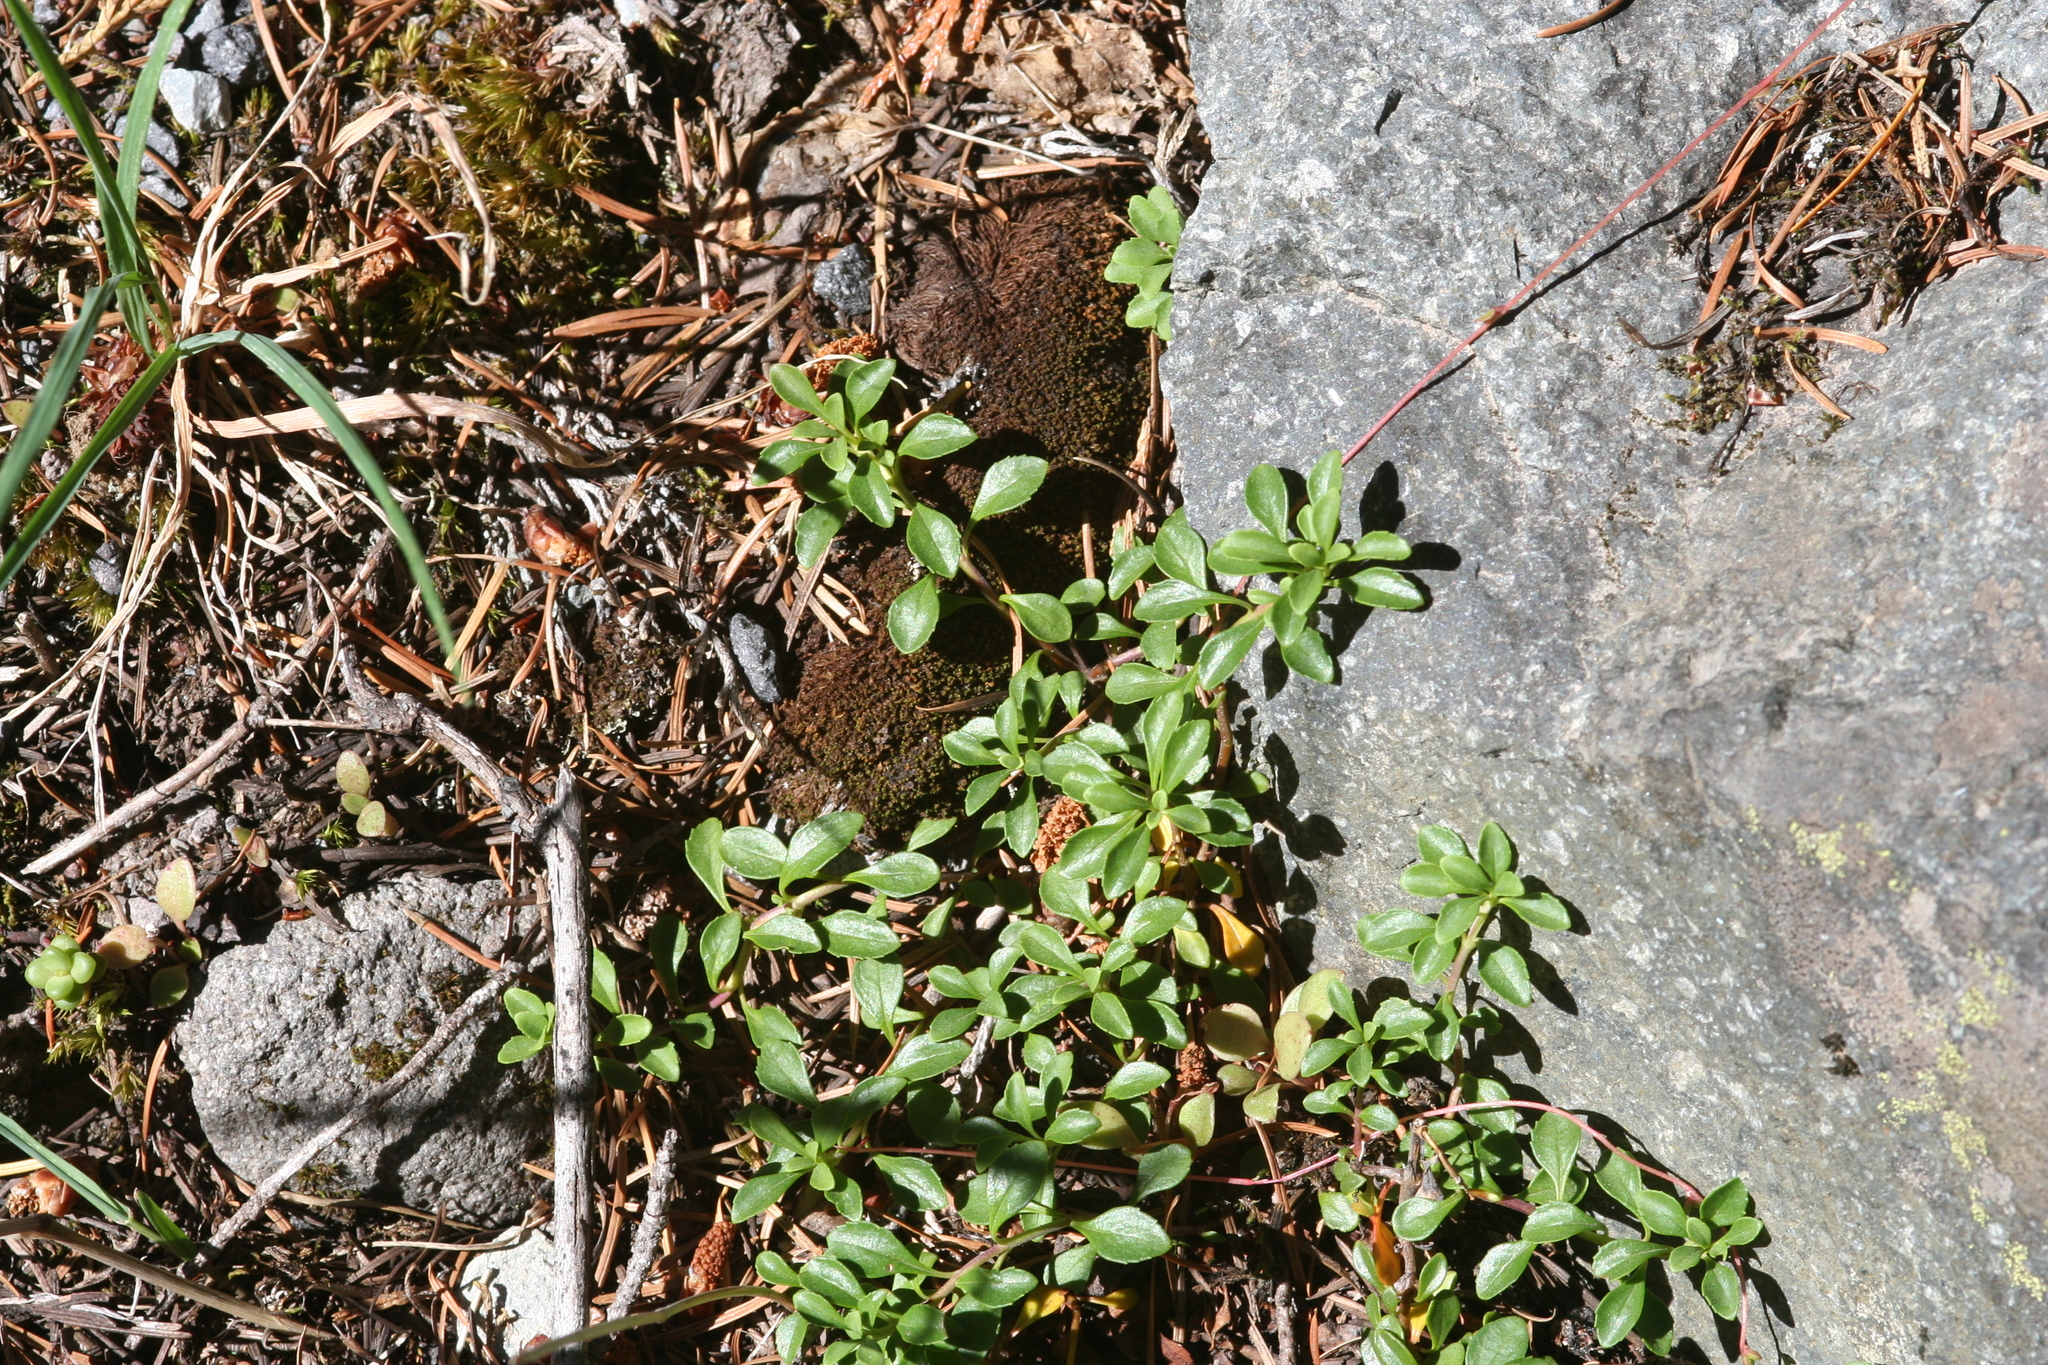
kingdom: Plantae
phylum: Tracheophyta
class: Magnoliopsida
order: Lamiales
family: Plantaginaceae
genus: Penstemon
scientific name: Penstemon davidsonii
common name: Davidson's penstemon
